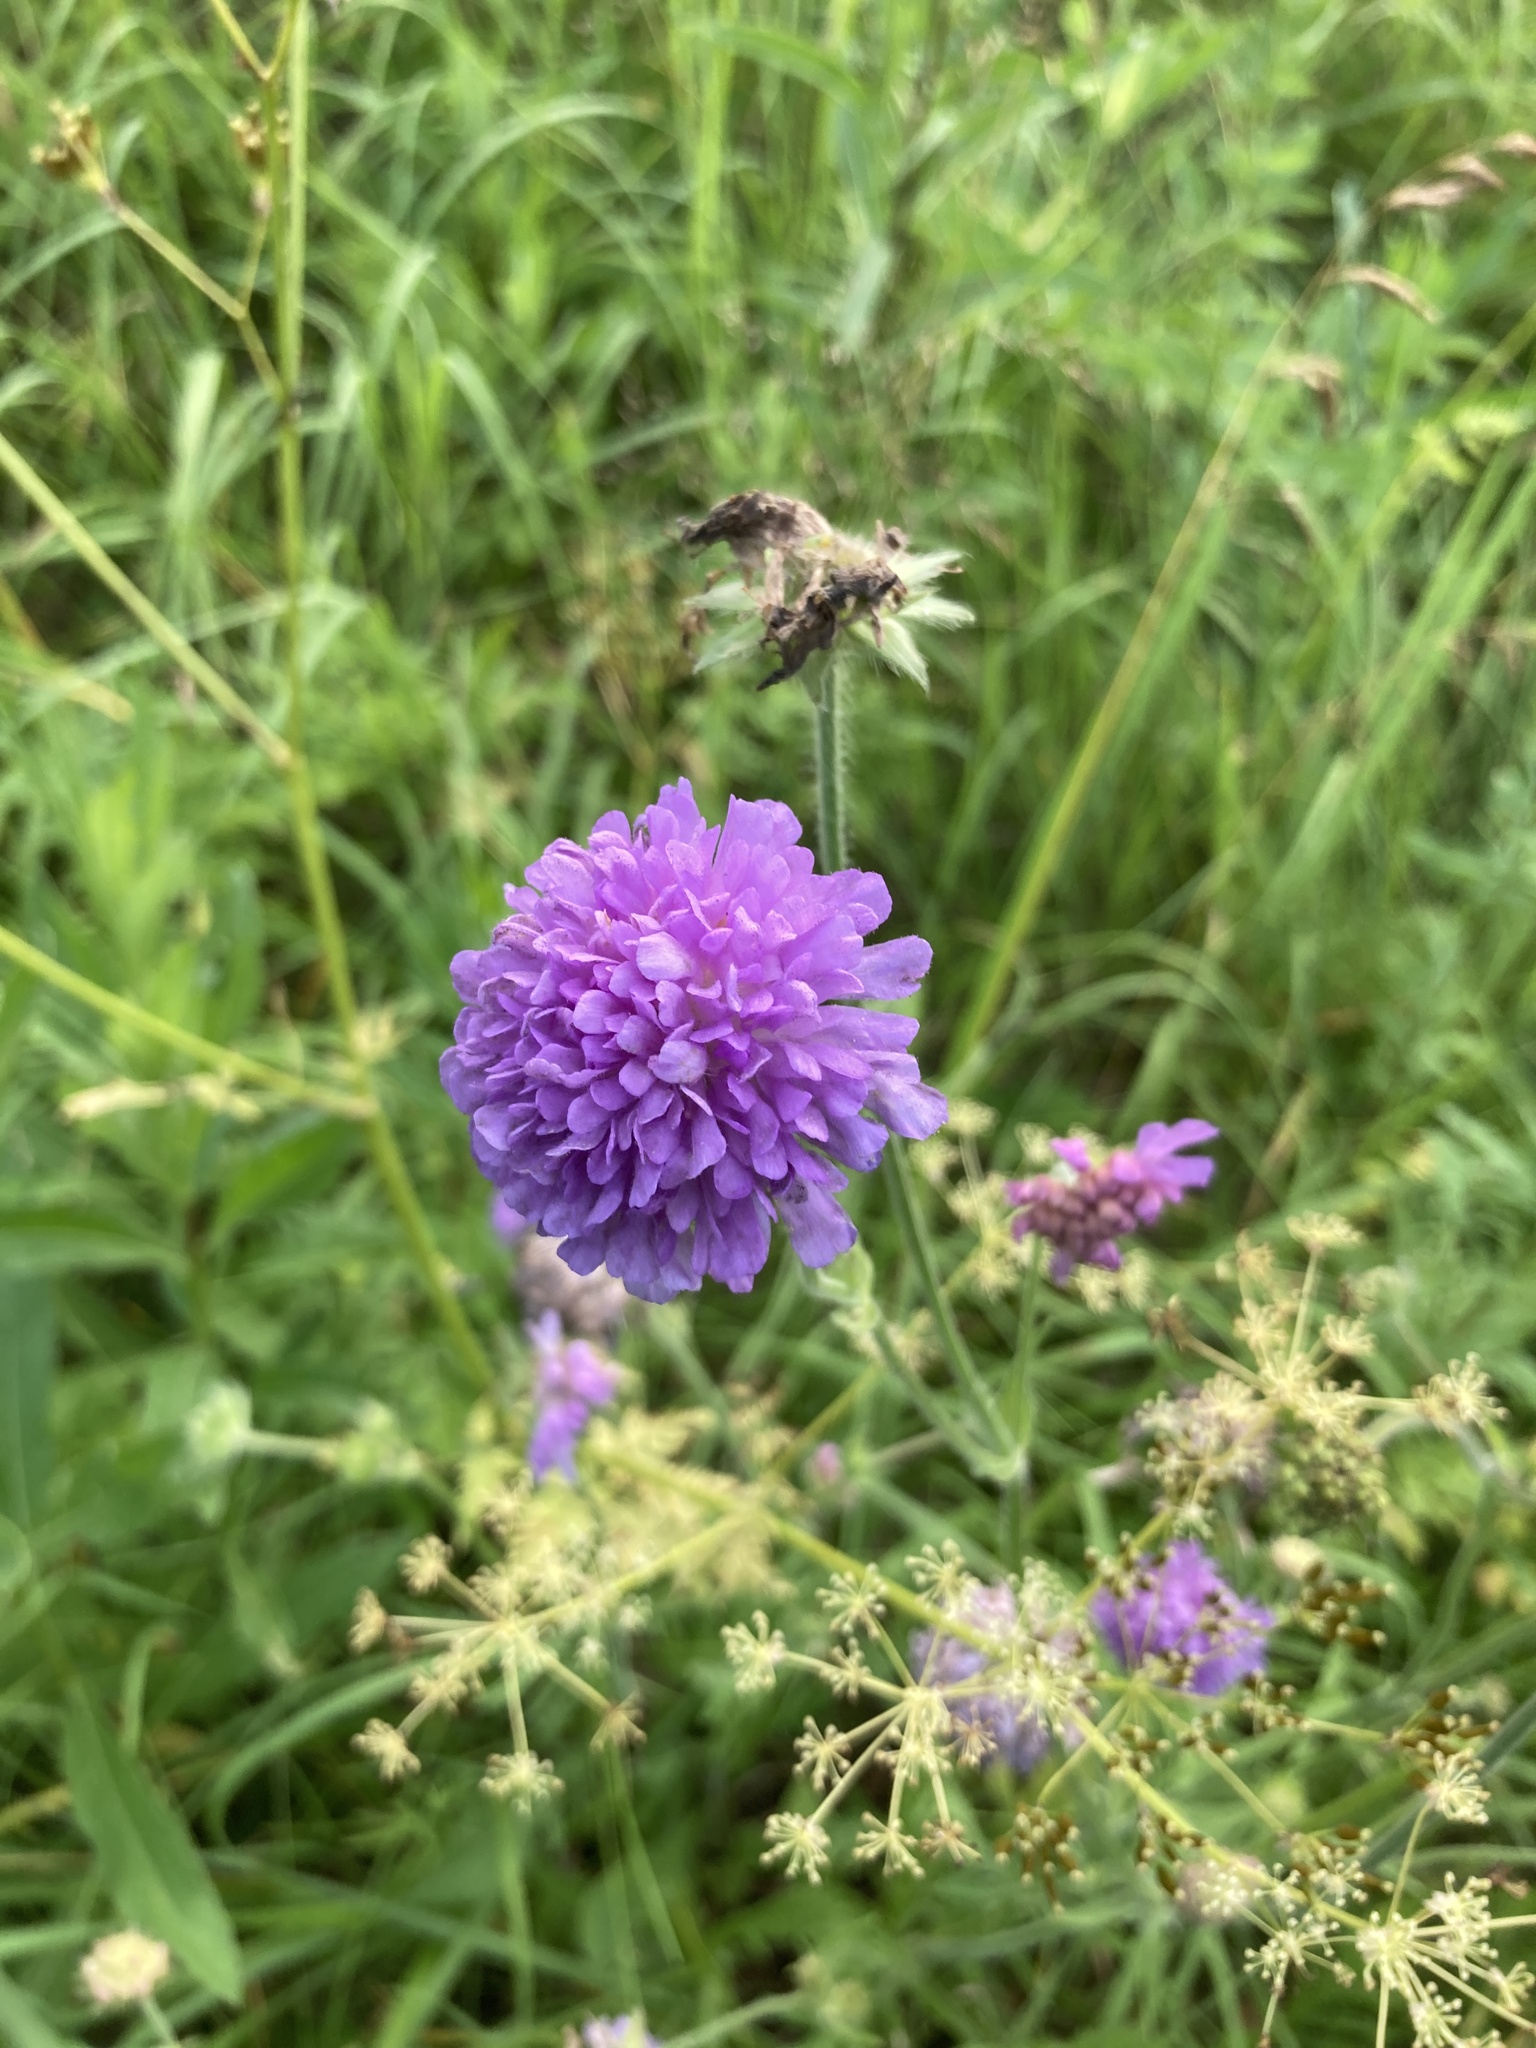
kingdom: Plantae
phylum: Tracheophyta
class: Magnoliopsida
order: Dipsacales
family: Caprifoliaceae
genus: Knautia
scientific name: Knautia arvensis
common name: Field scabiosa
